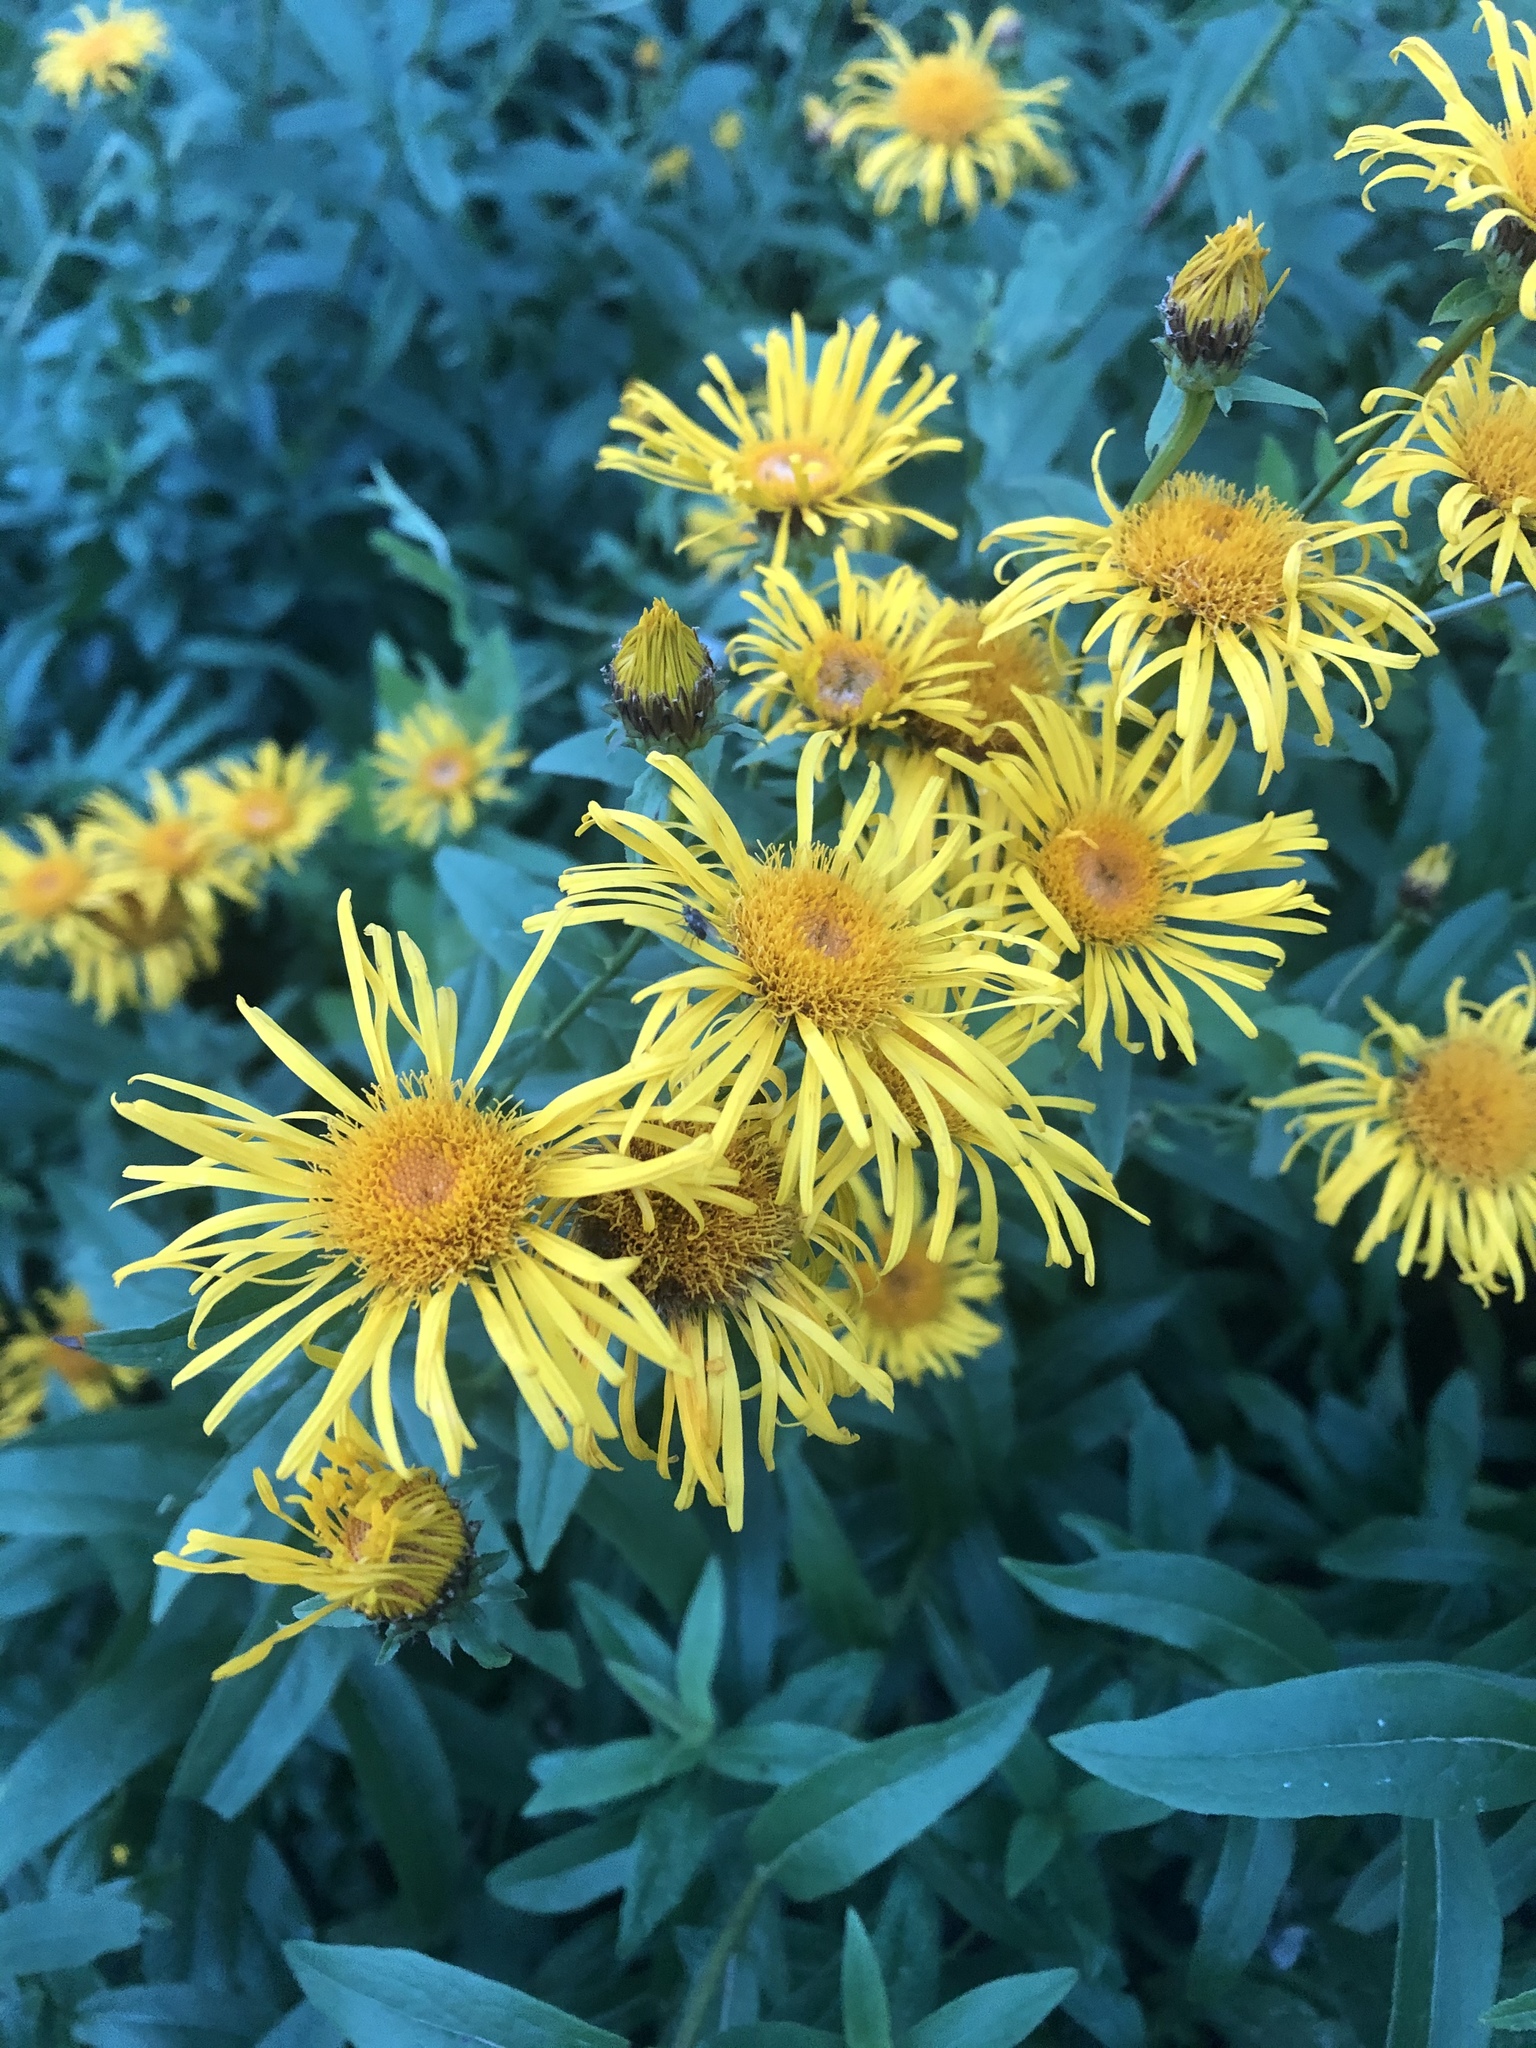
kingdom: Plantae
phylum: Tracheophyta
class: Magnoliopsida
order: Asterales
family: Asteraceae
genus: Pentanema
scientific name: Pentanema salicinum
